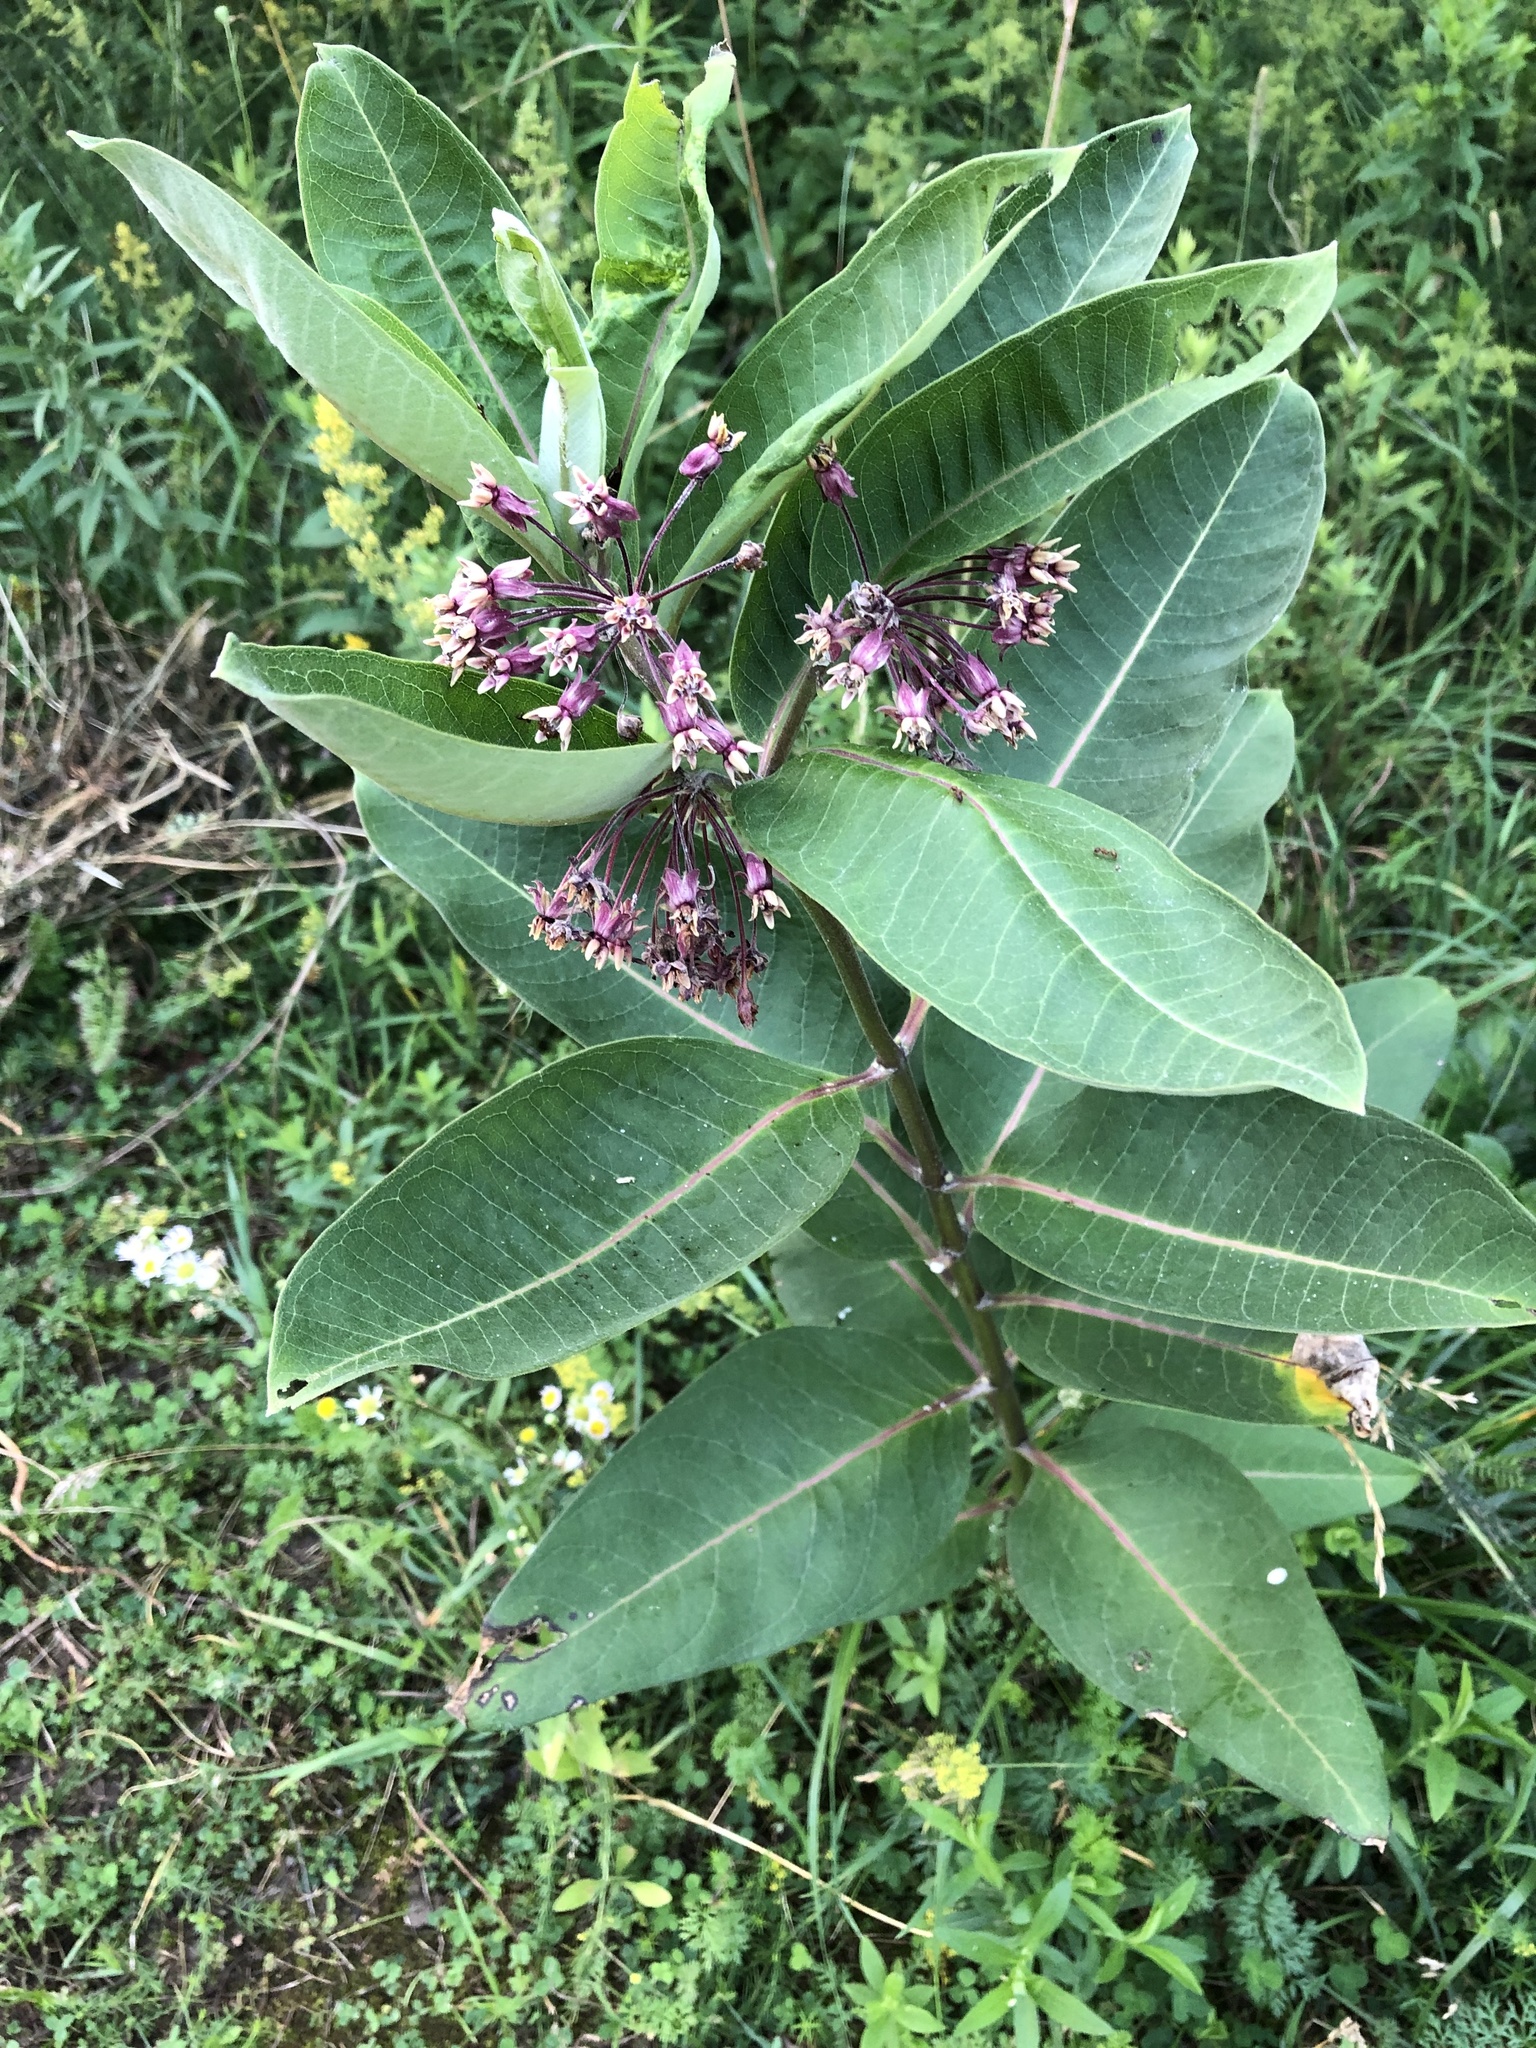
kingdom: Plantae
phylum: Tracheophyta
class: Magnoliopsida
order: Gentianales
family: Apocynaceae
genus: Asclepias
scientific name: Asclepias syriaca
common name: Common milkweed
